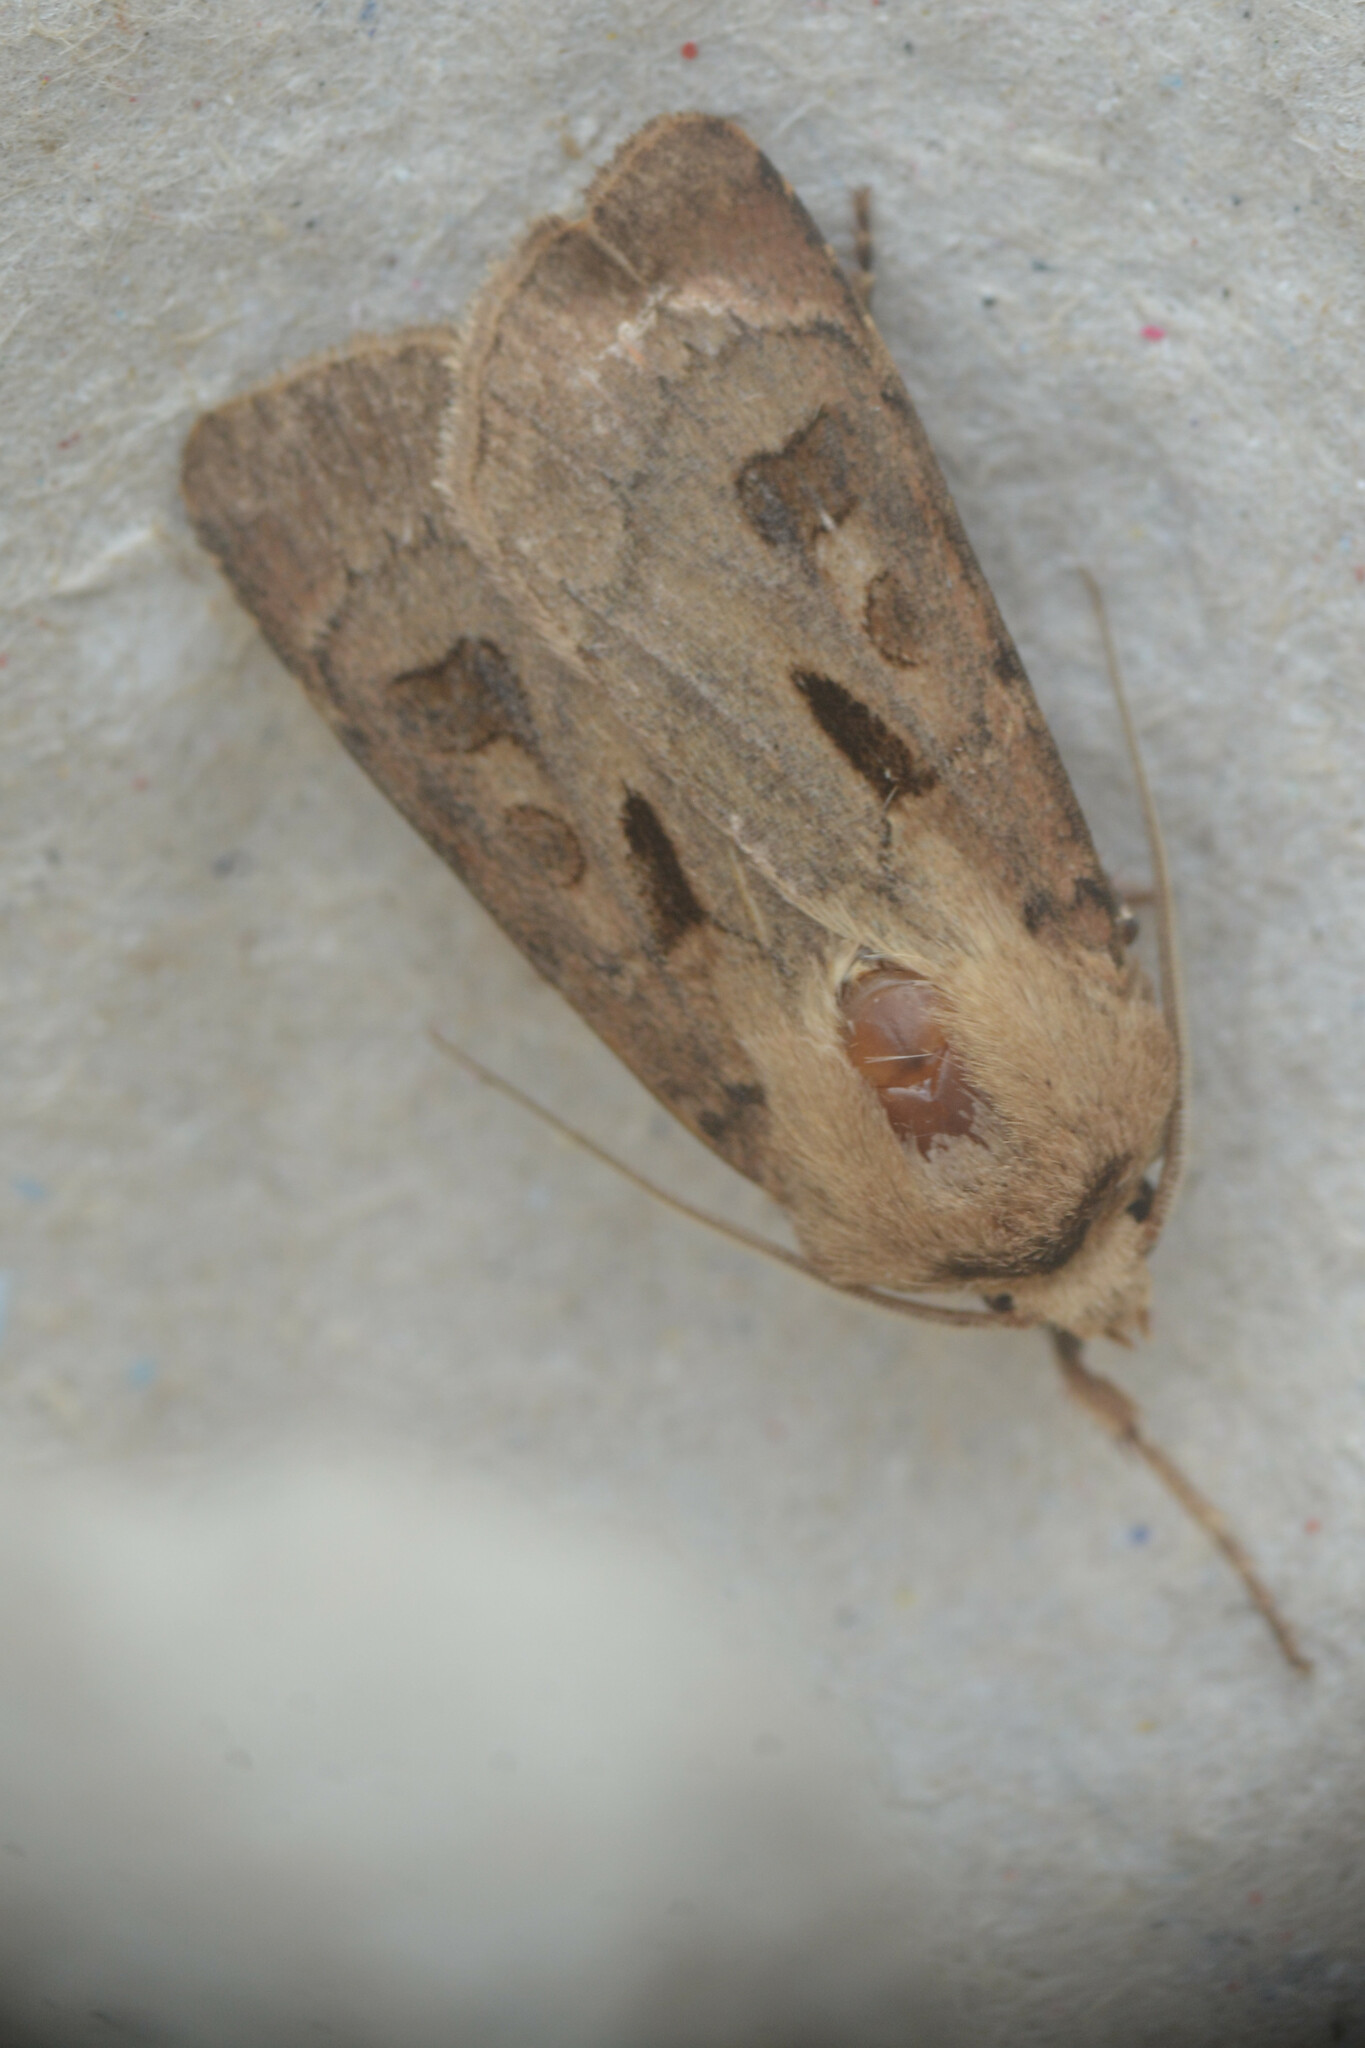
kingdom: Animalia
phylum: Arthropoda
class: Insecta
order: Lepidoptera
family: Noctuidae
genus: Agrotis
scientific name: Agrotis exclamationis
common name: Heart and dart
